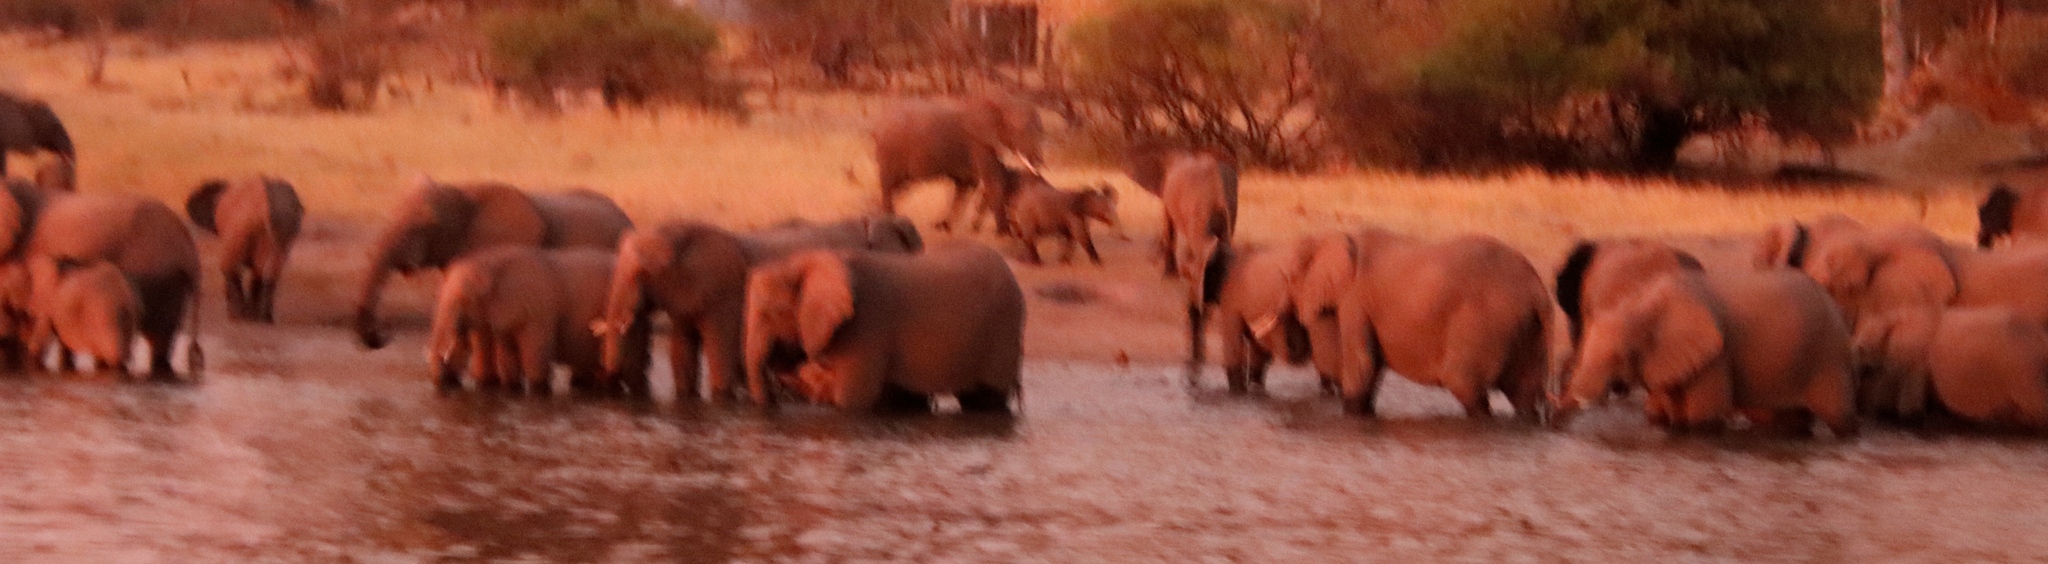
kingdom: Animalia
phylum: Chordata
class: Mammalia
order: Proboscidea
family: Elephantidae
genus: Loxodonta
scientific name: Loxodonta africana
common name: African elephant
